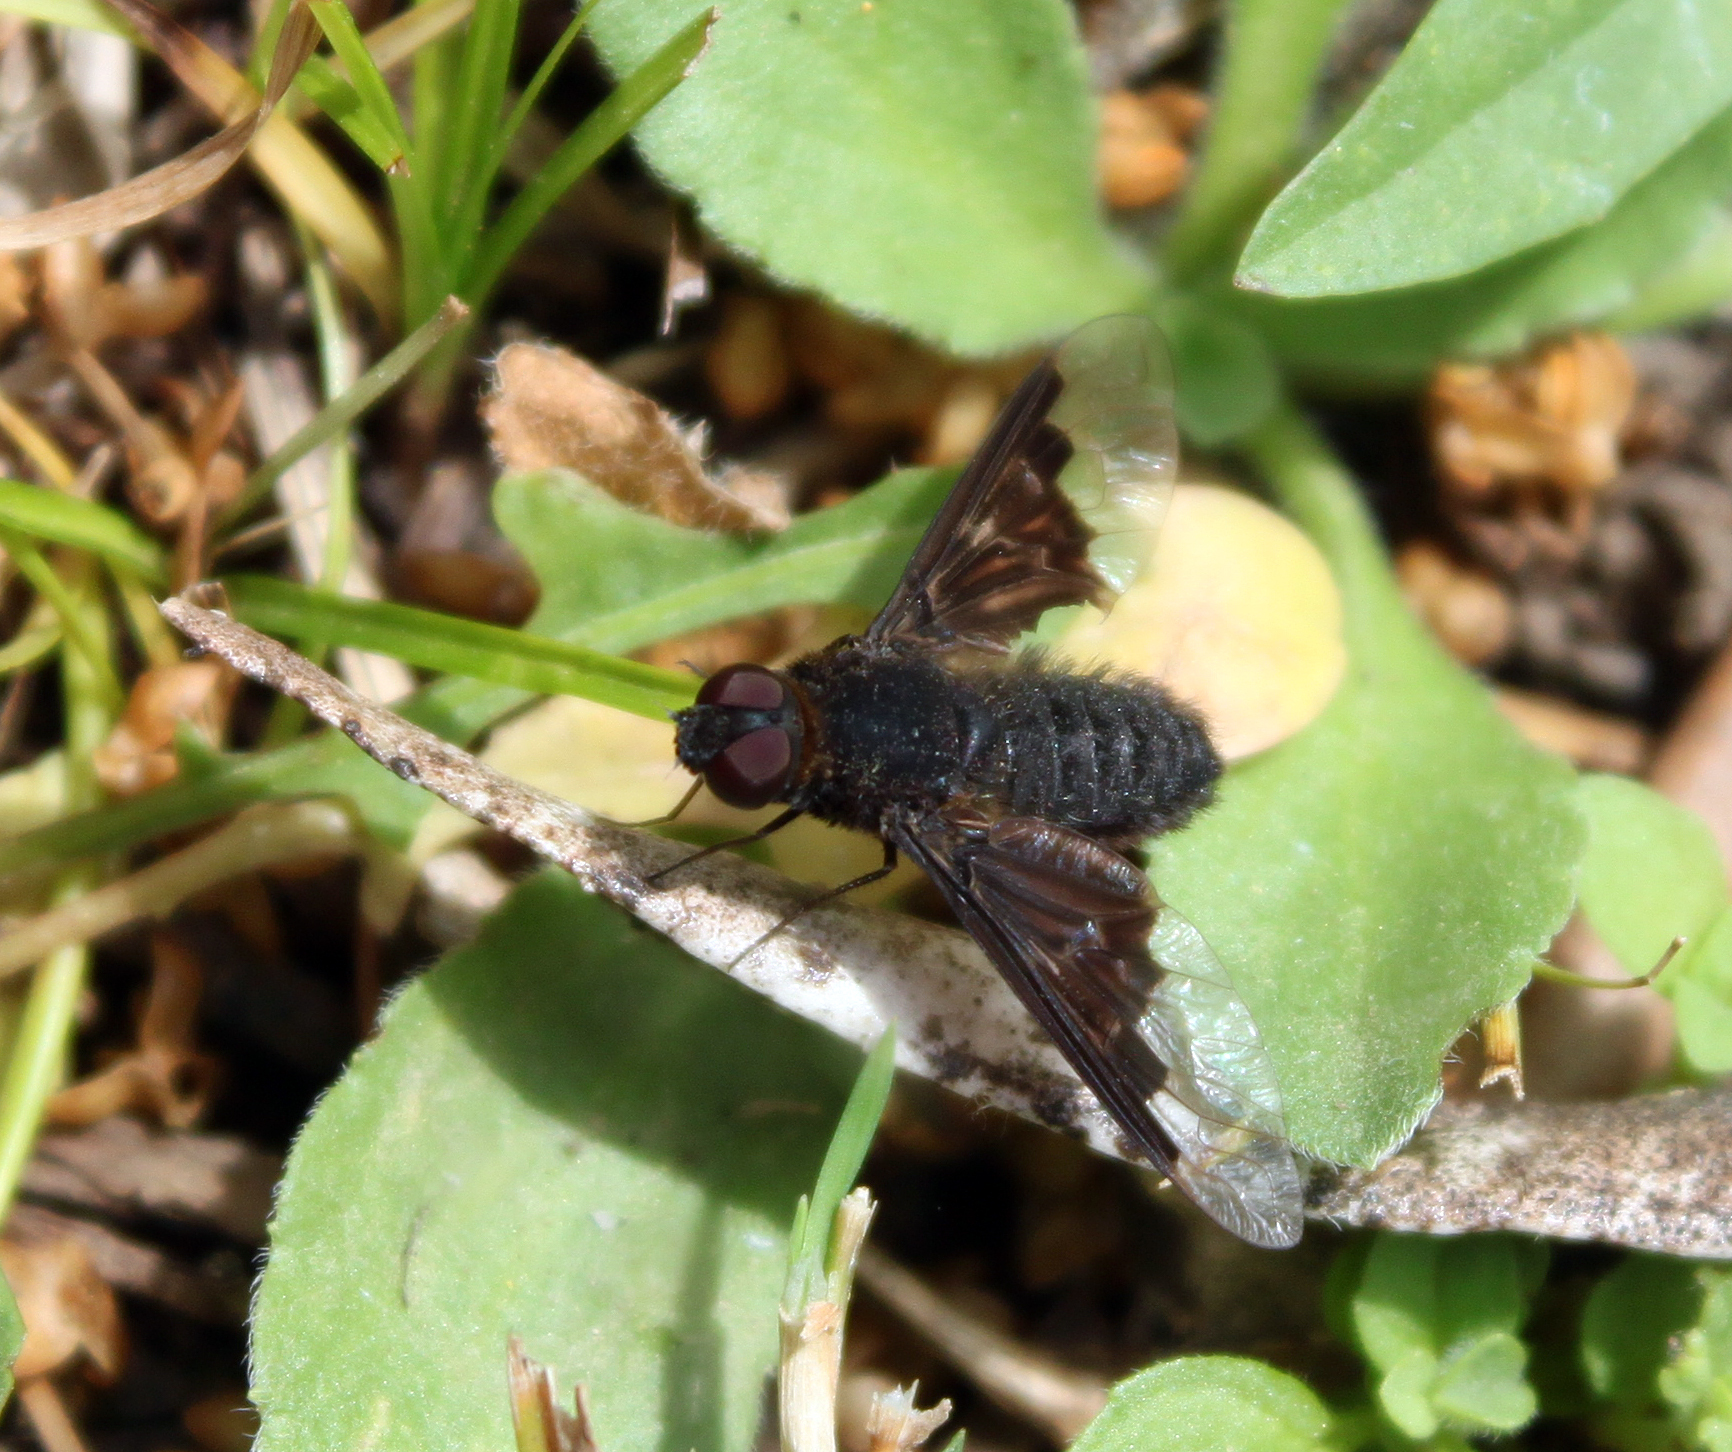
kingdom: Animalia
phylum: Arthropoda
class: Insecta
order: Diptera
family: Bombyliidae
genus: Hemipenthes
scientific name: Hemipenthes morio
